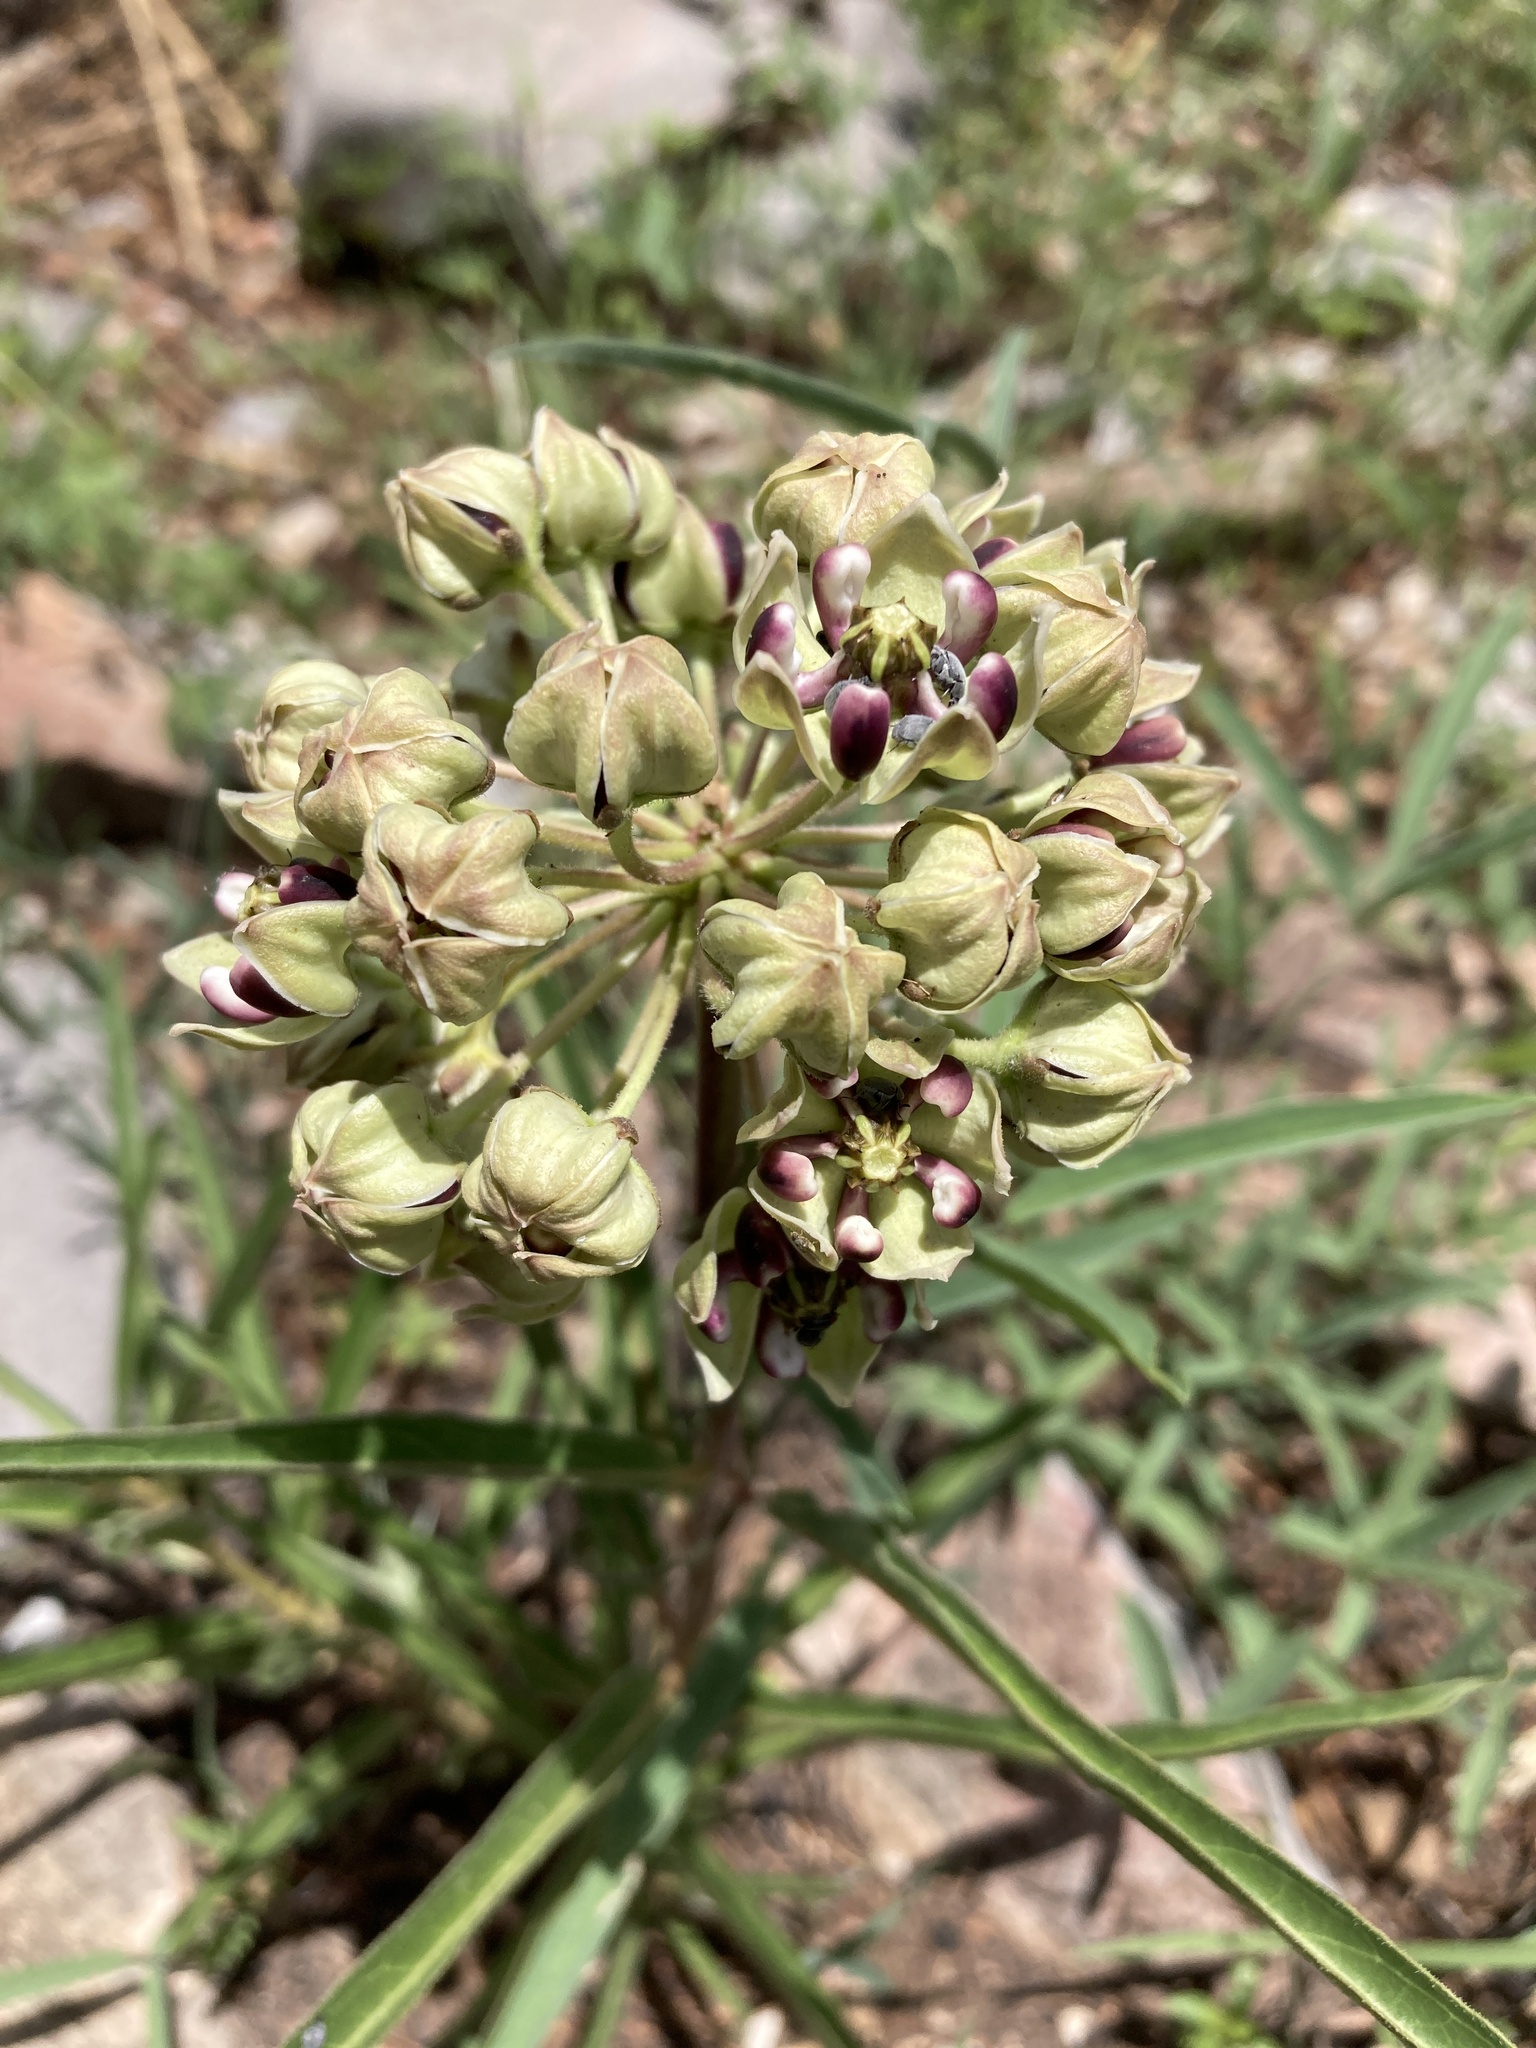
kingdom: Plantae
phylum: Tracheophyta
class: Magnoliopsida
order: Gentianales
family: Apocynaceae
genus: Asclepias
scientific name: Asclepias asperula
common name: Antelope horns
